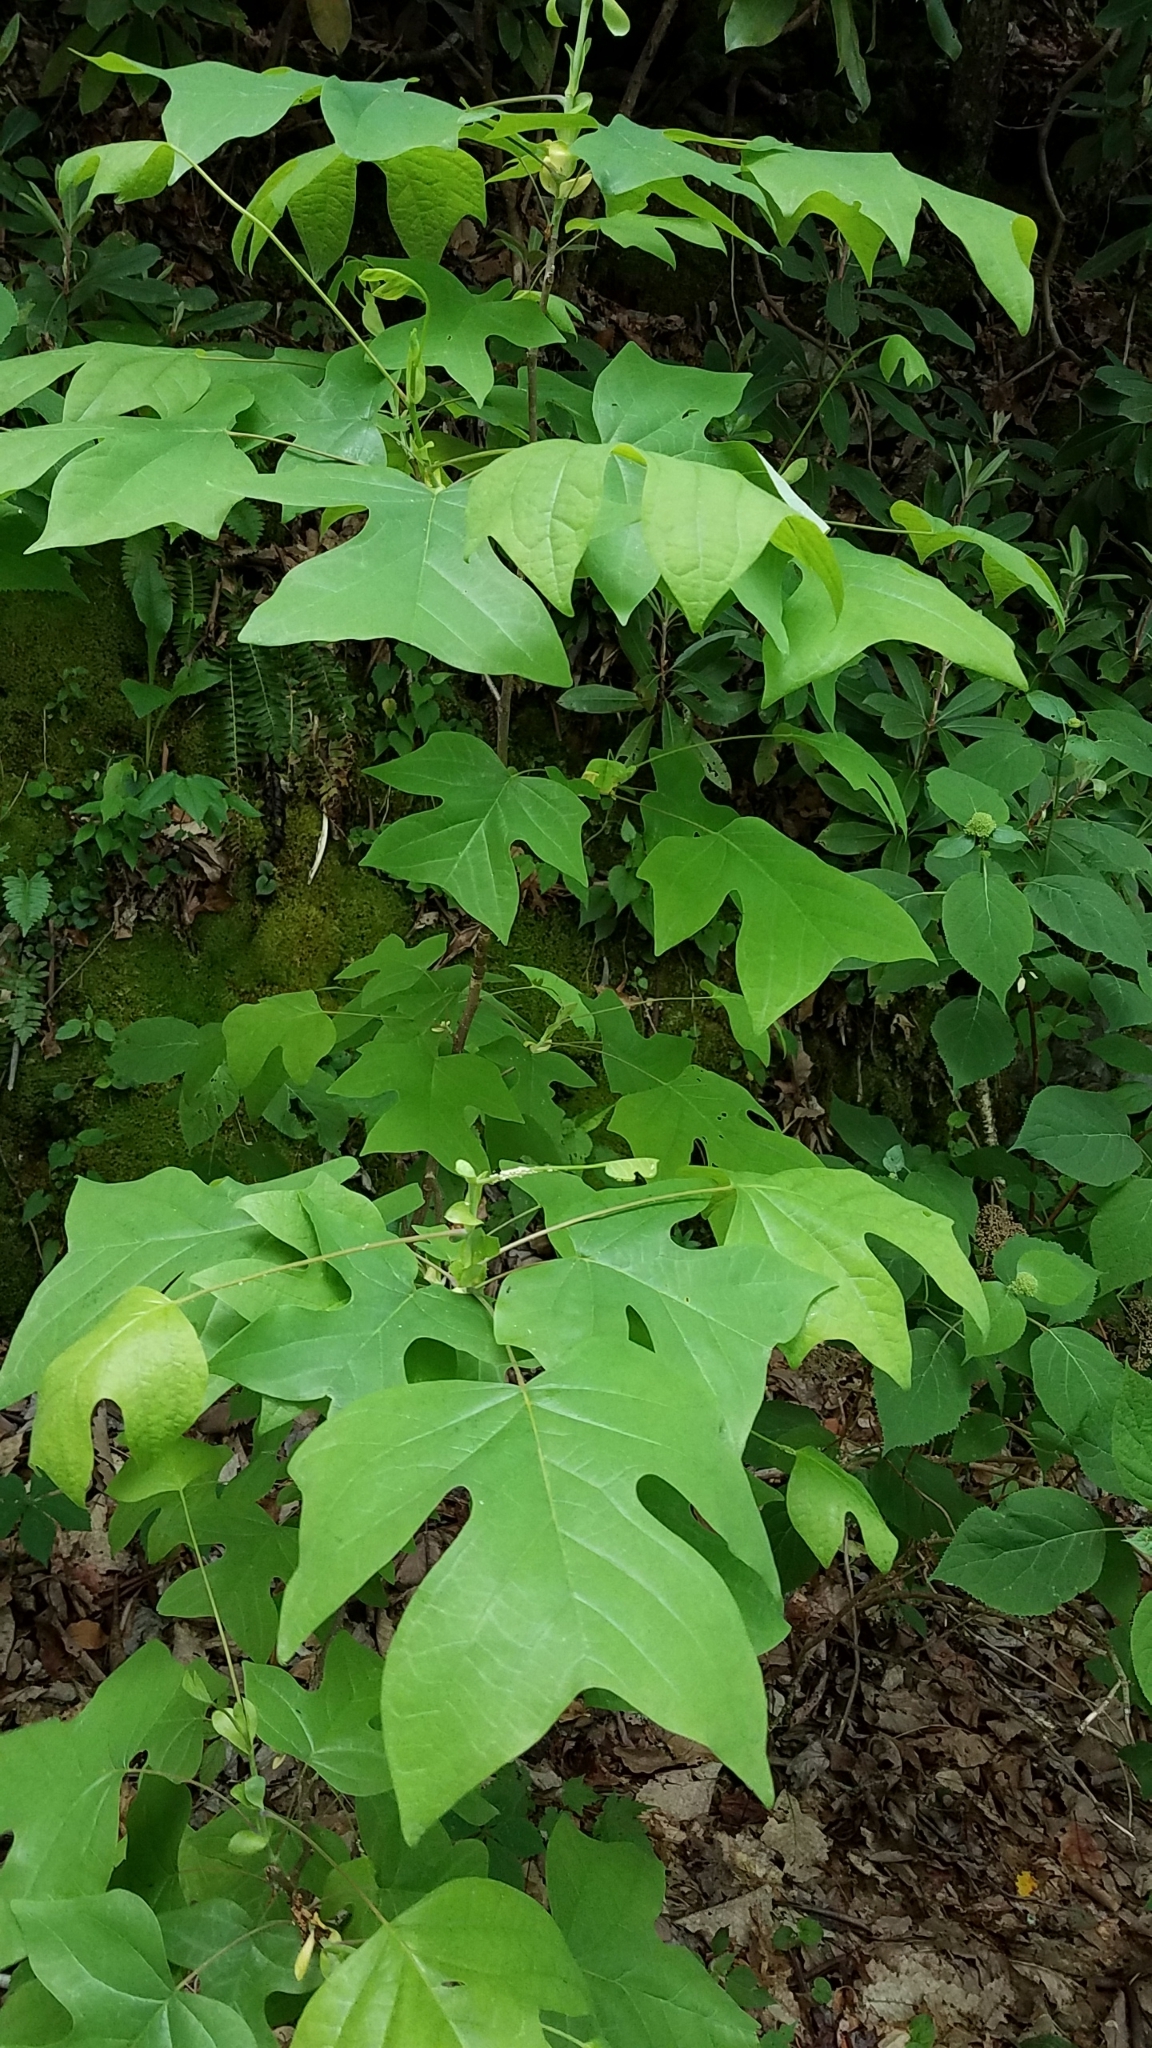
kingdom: Plantae
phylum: Tracheophyta
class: Magnoliopsida
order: Magnoliales
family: Magnoliaceae
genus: Liriodendron
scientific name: Liriodendron tulipifera
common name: Tulip tree
